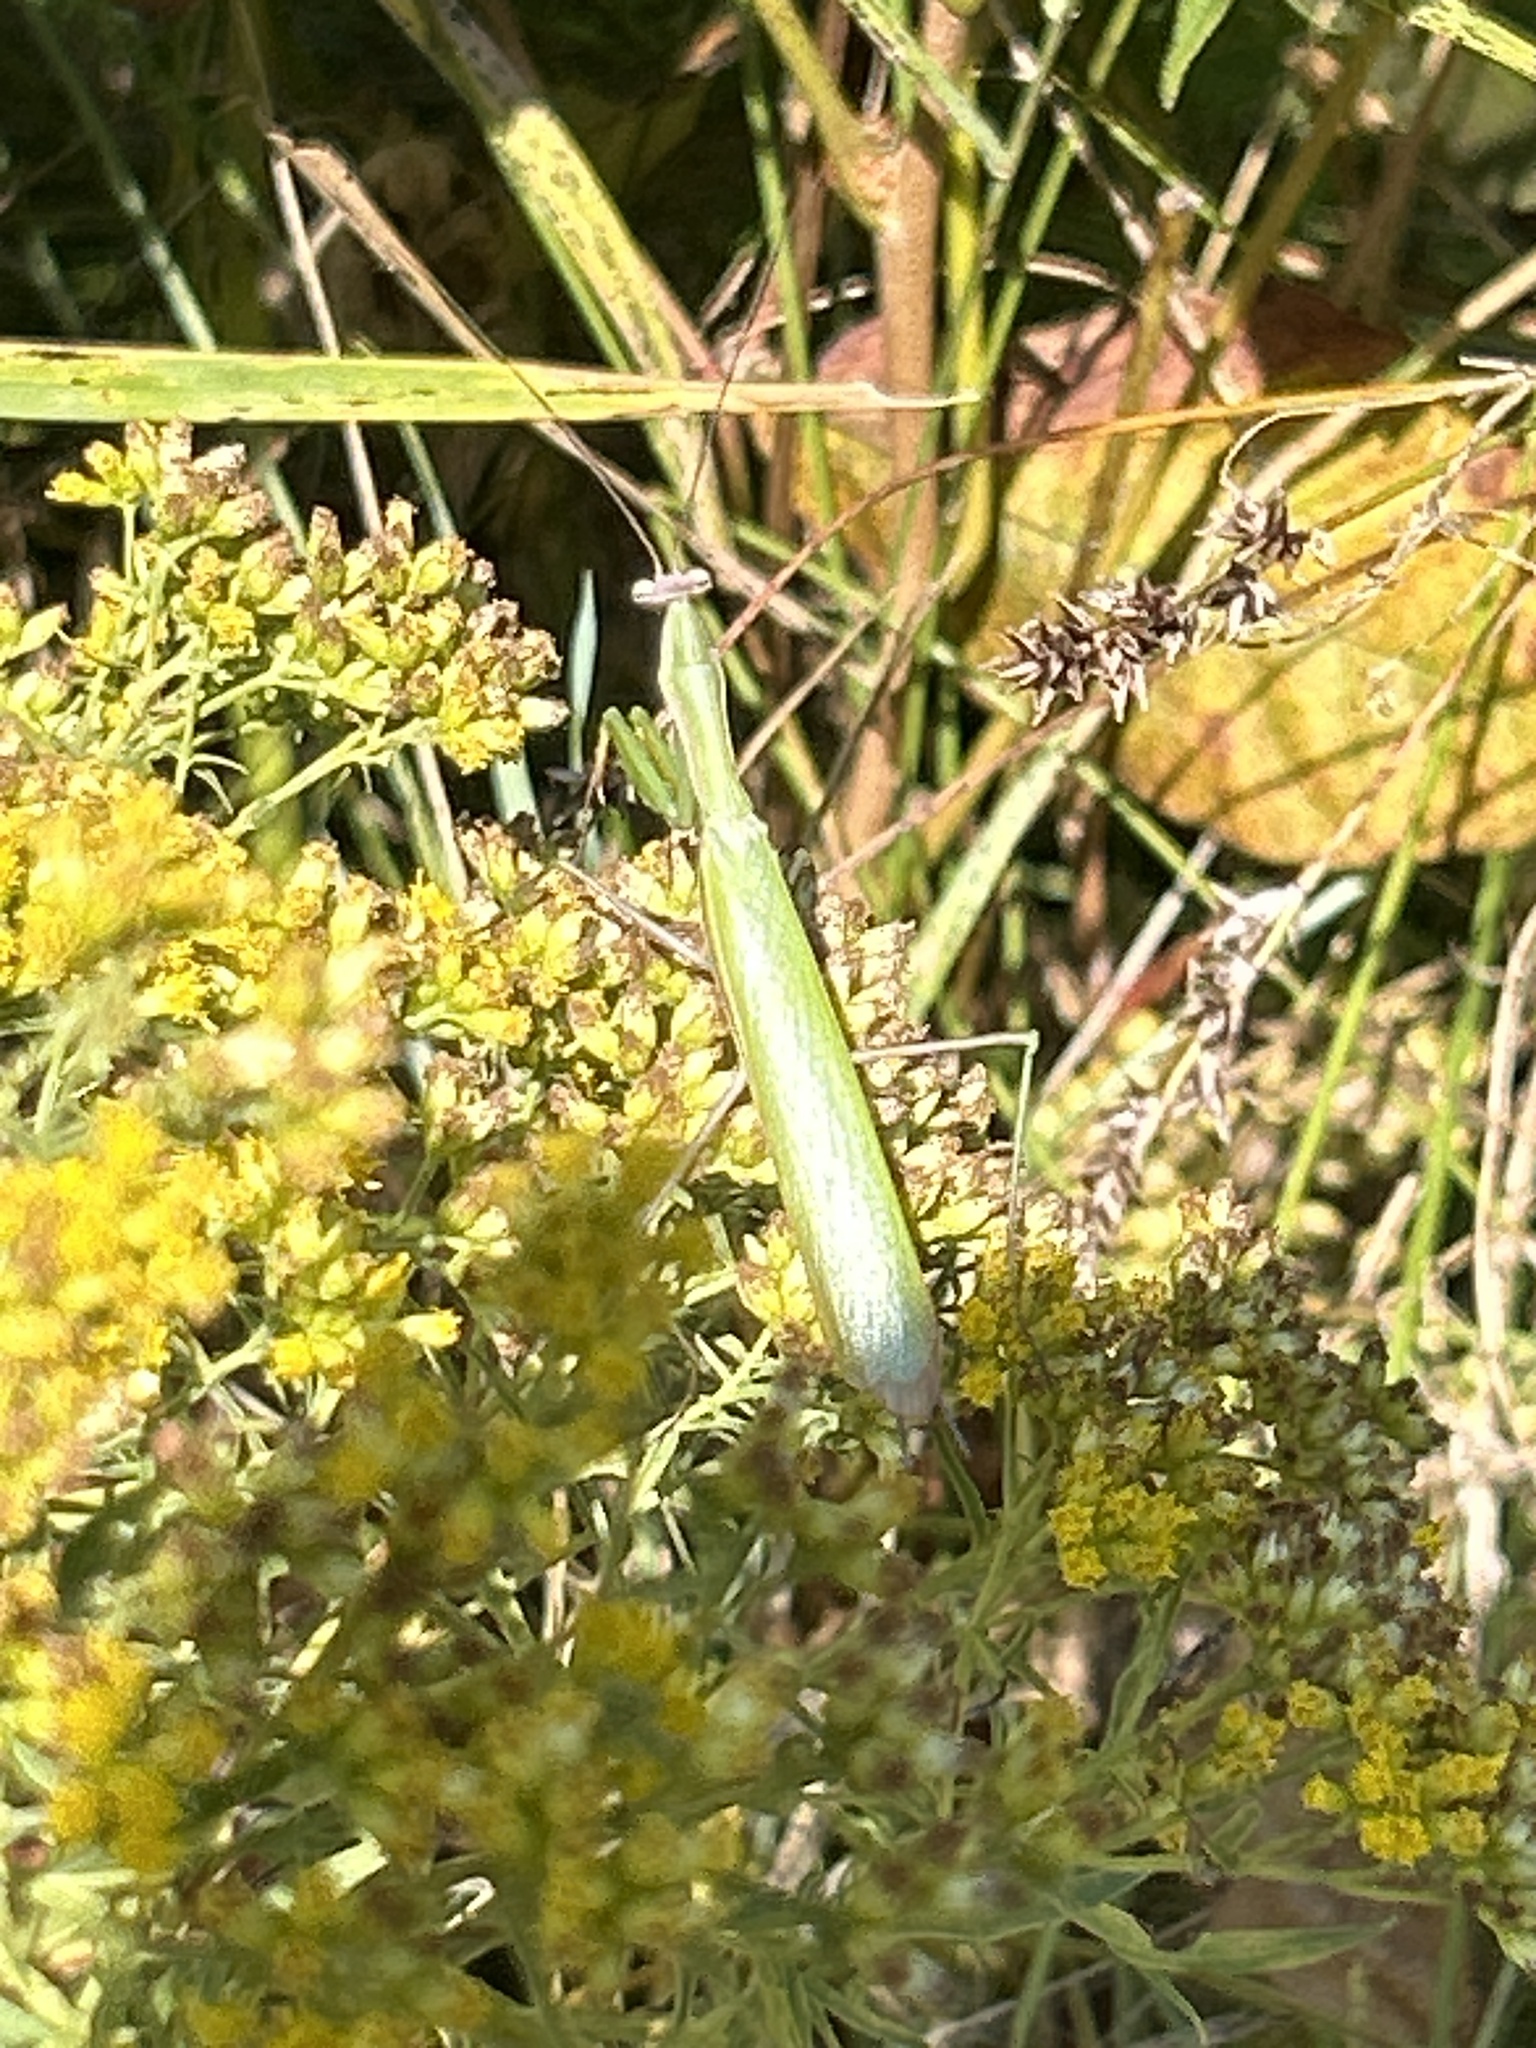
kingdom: Animalia
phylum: Arthropoda
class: Insecta
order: Mantodea
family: Mantidae
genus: Mantis
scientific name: Mantis religiosa
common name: Praying mantis
